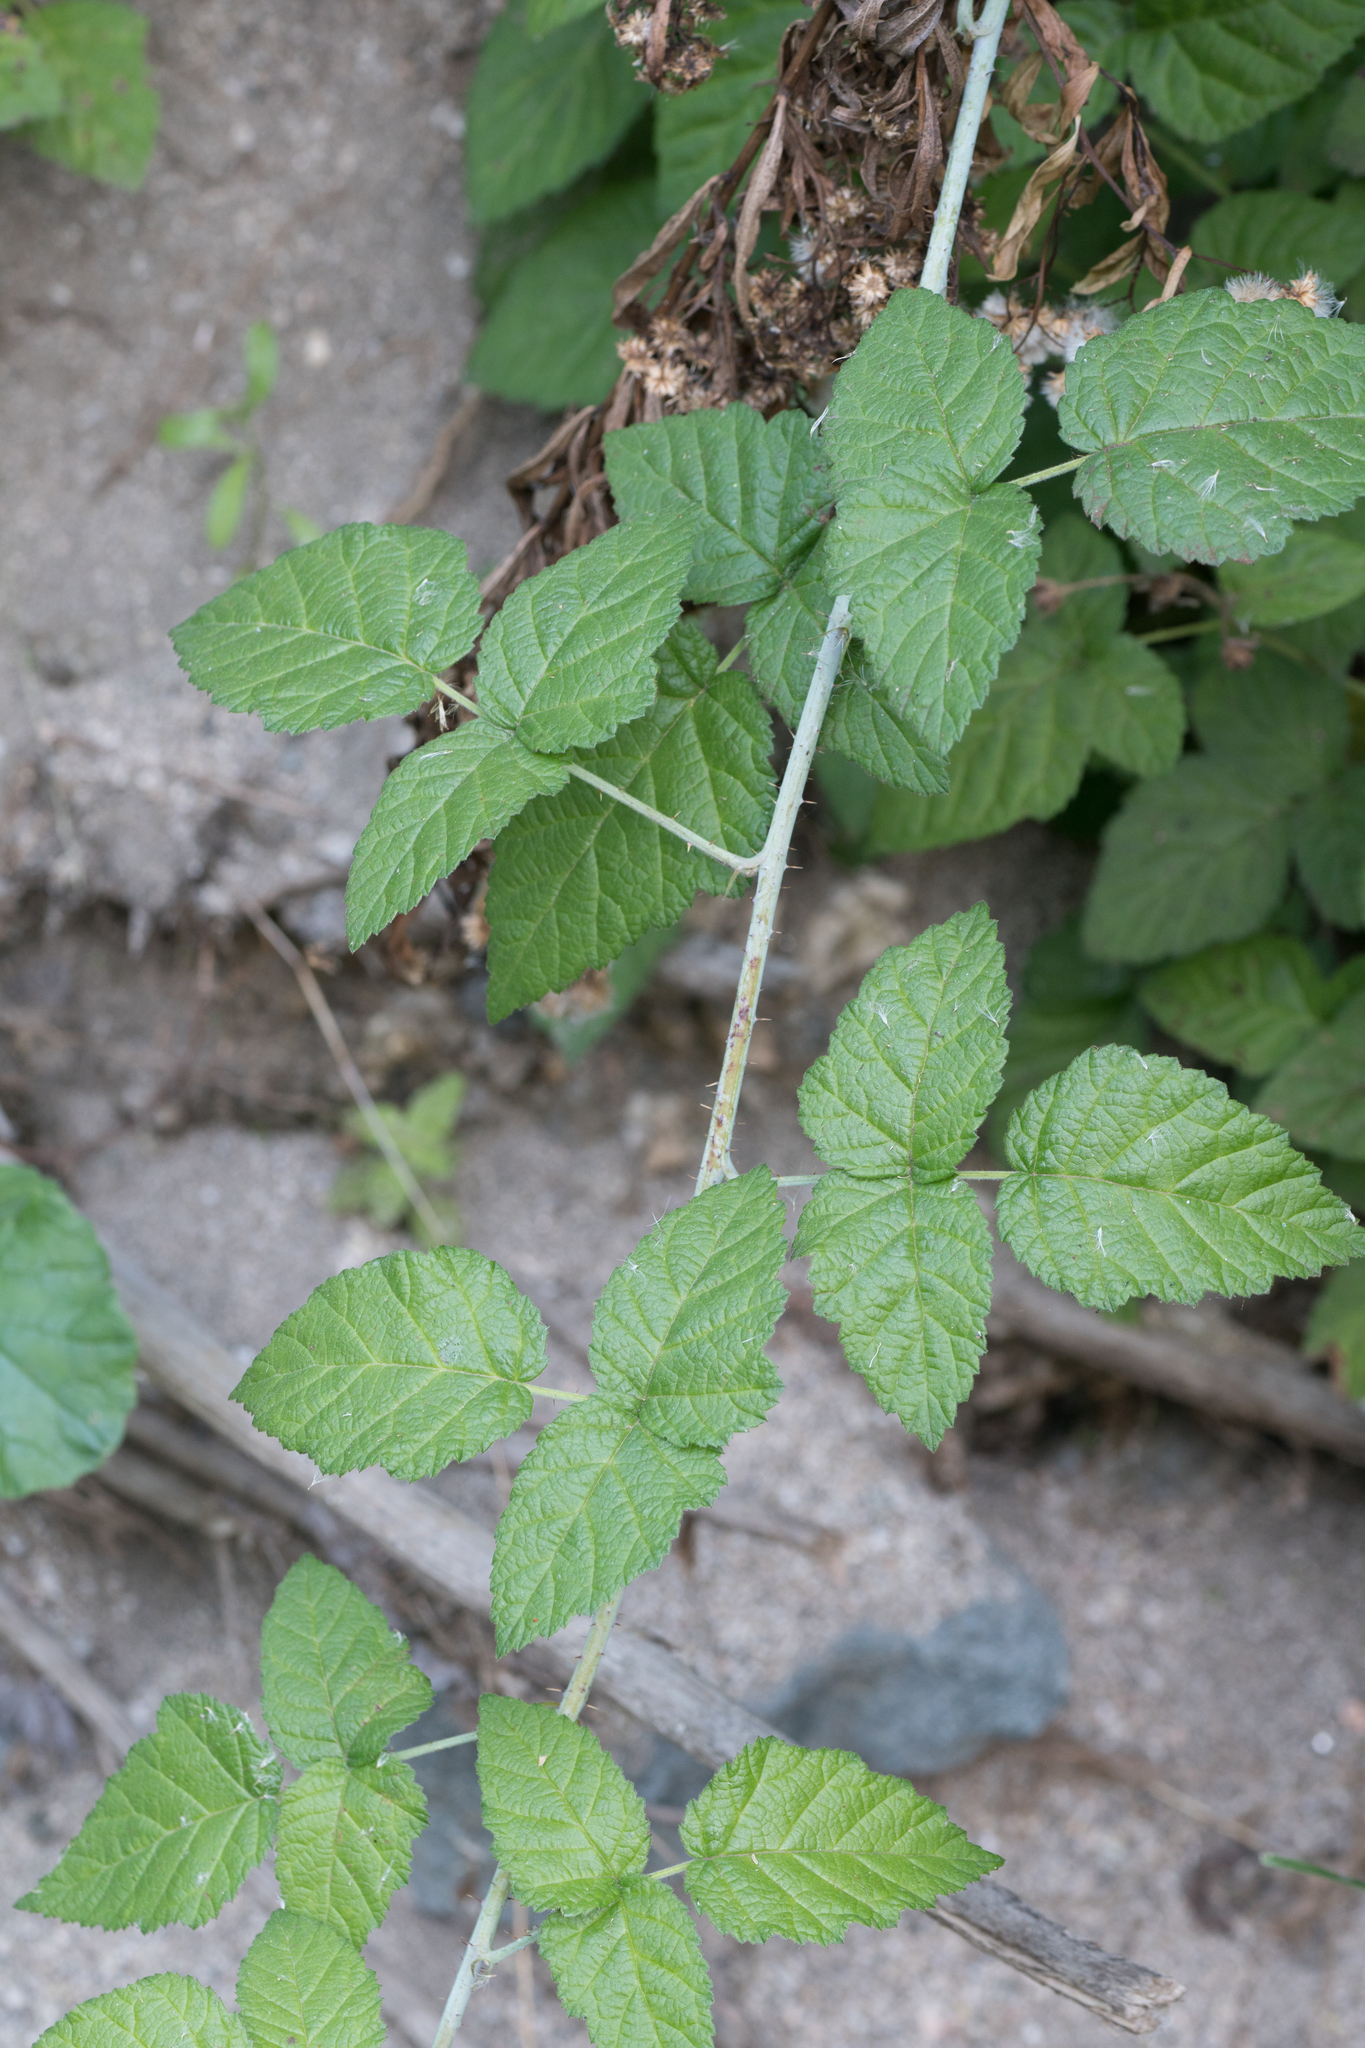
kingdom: Plantae
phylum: Tracheophyta
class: Magnoliopsida
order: Rosales
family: Rosaceae
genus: Rubus
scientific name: Rubus ursinus
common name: Pacific blackberry
